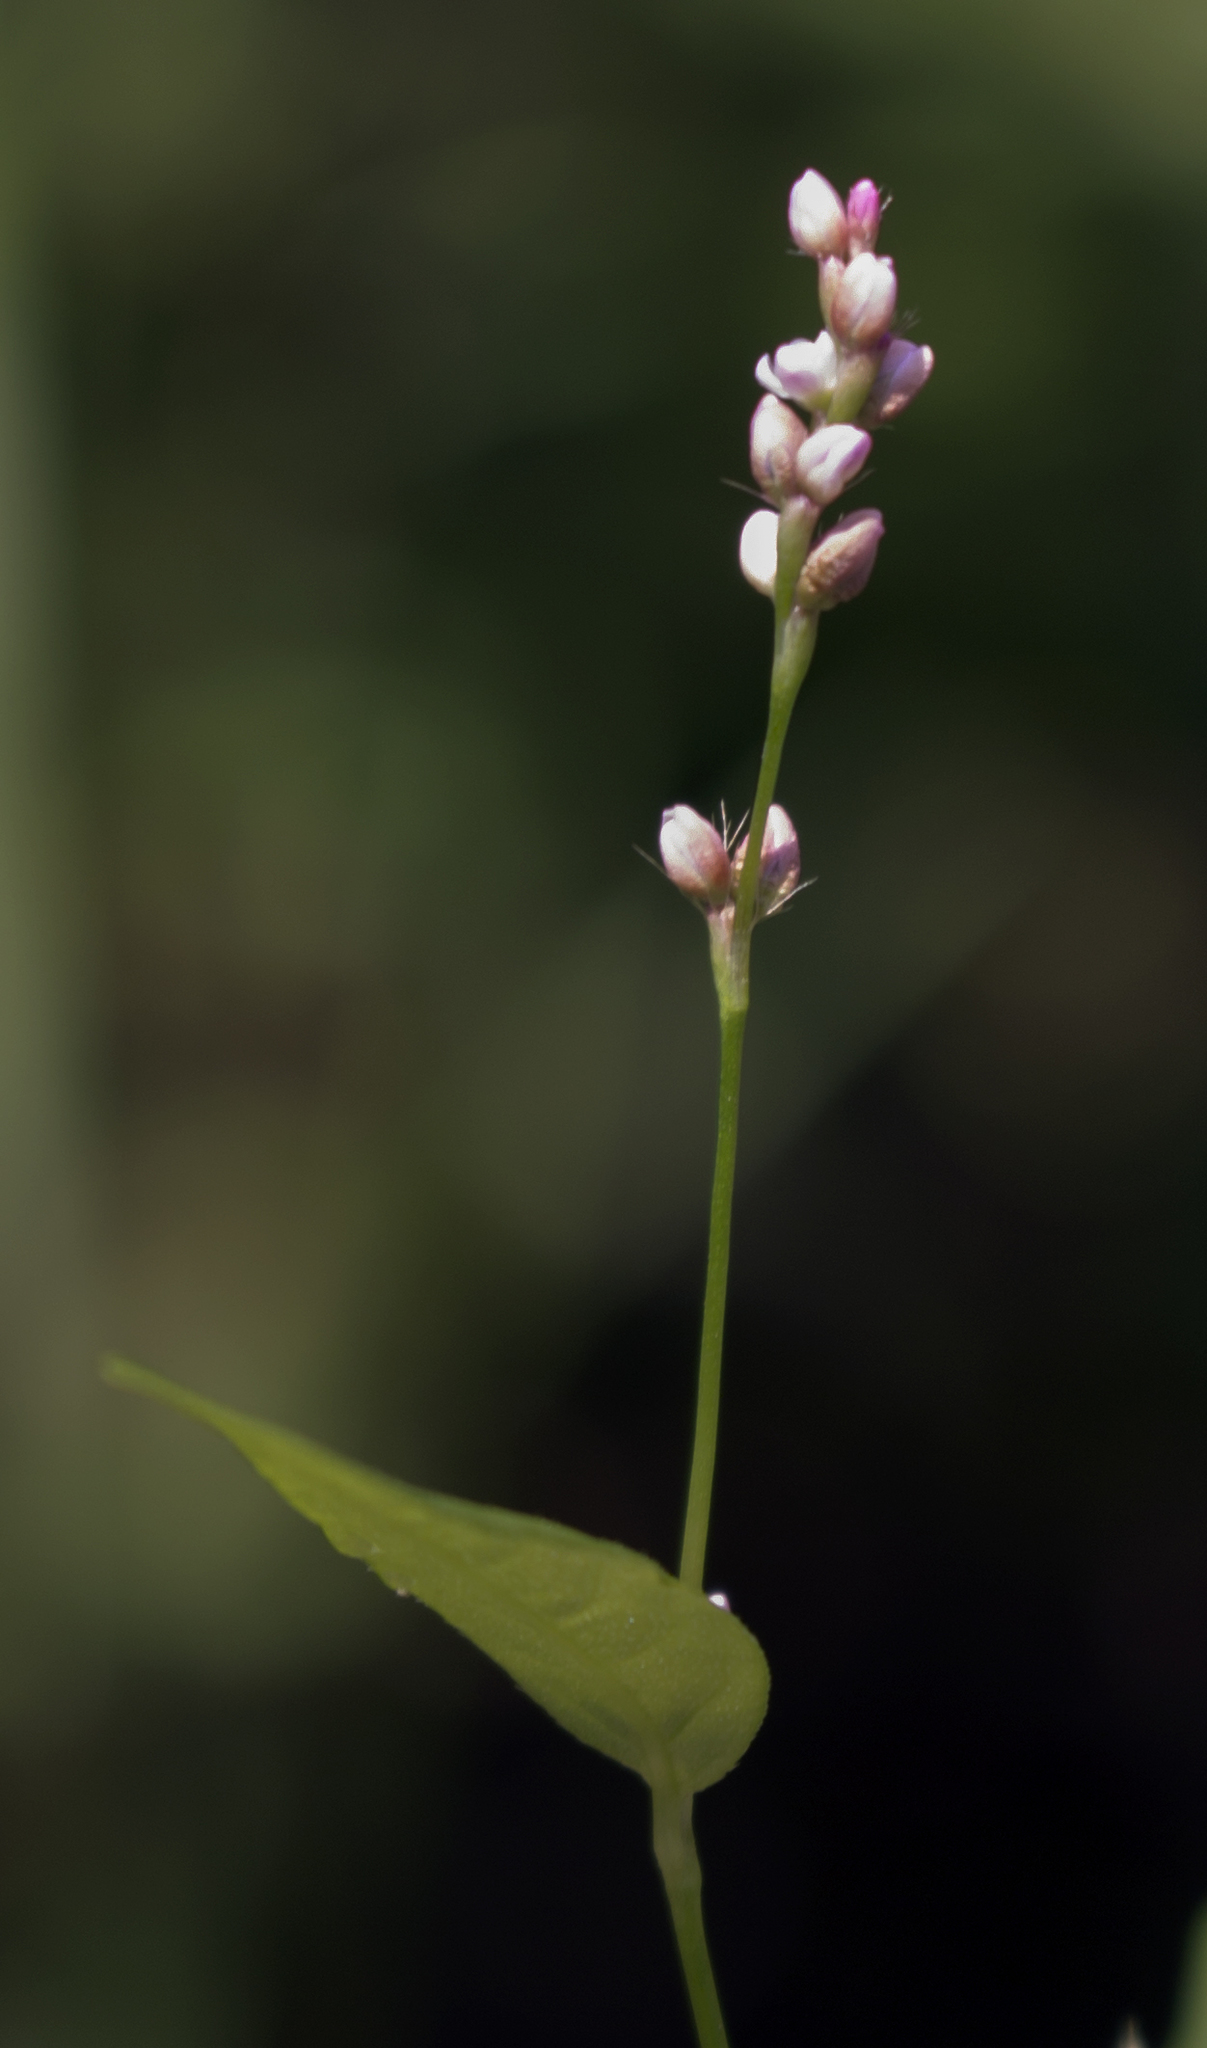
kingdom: Plantae
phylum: Tracheophyta
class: Magnoliopsida
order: Caryophyllales
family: Polygonaceae
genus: Persicaria
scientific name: Persicaria longiseta
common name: Bristly lady's-thumb
